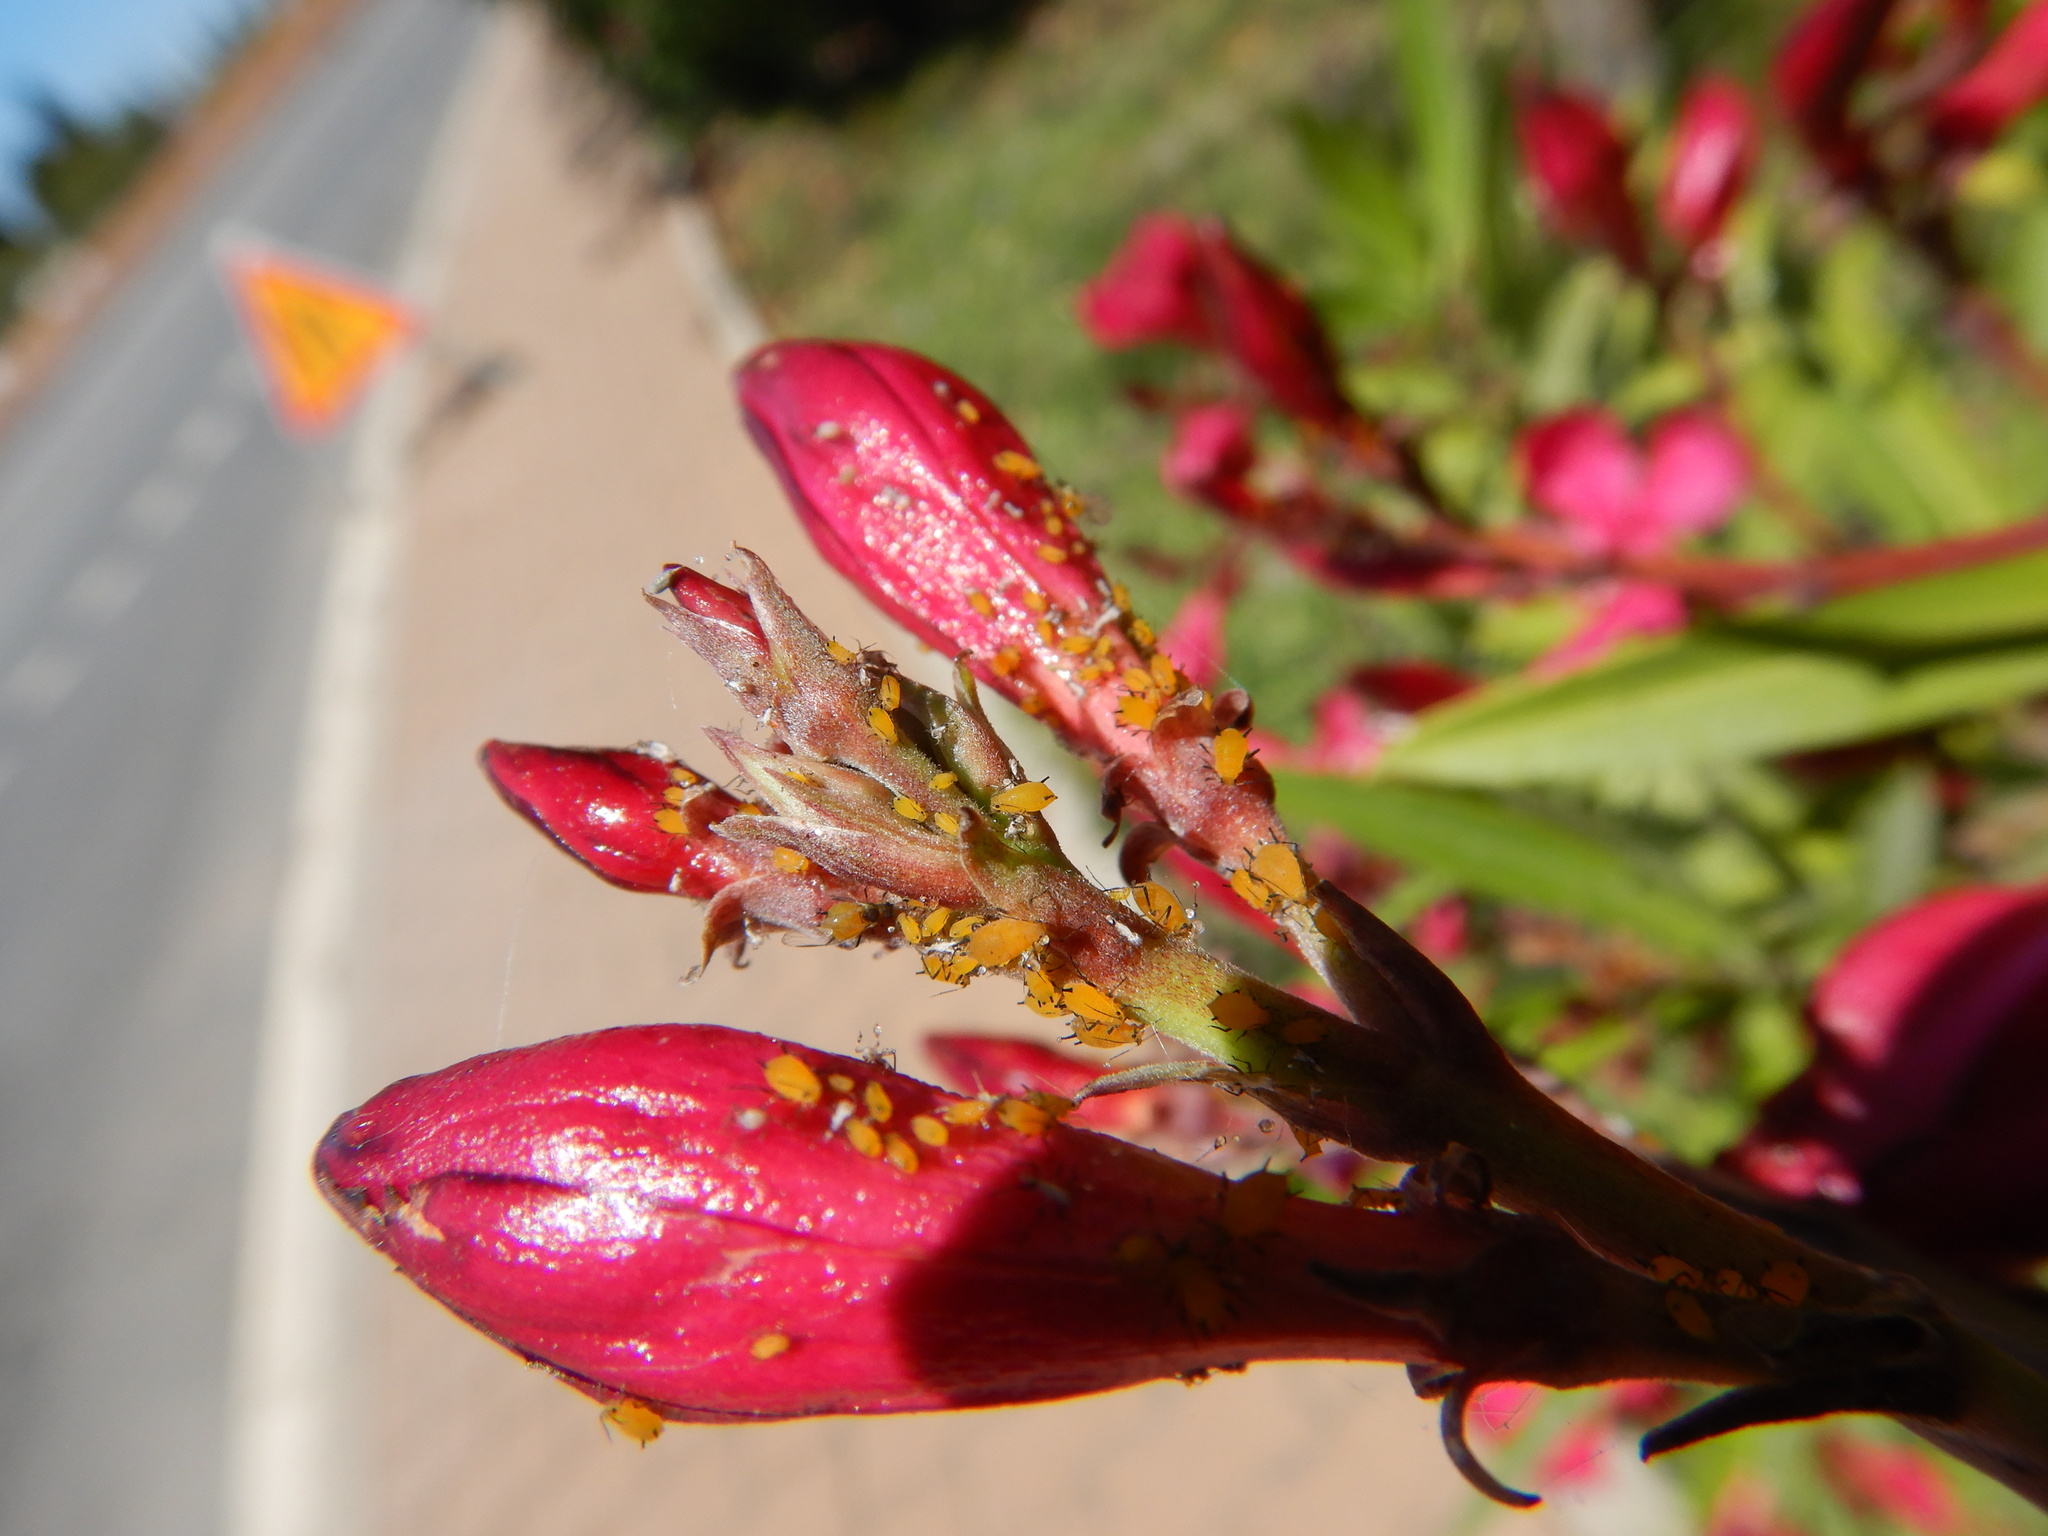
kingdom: Animalia
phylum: Arthropoda
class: Insecta
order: Hemiptera
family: Aphididae
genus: Aphis
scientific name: Aphis nerii
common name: Oleander aphid
